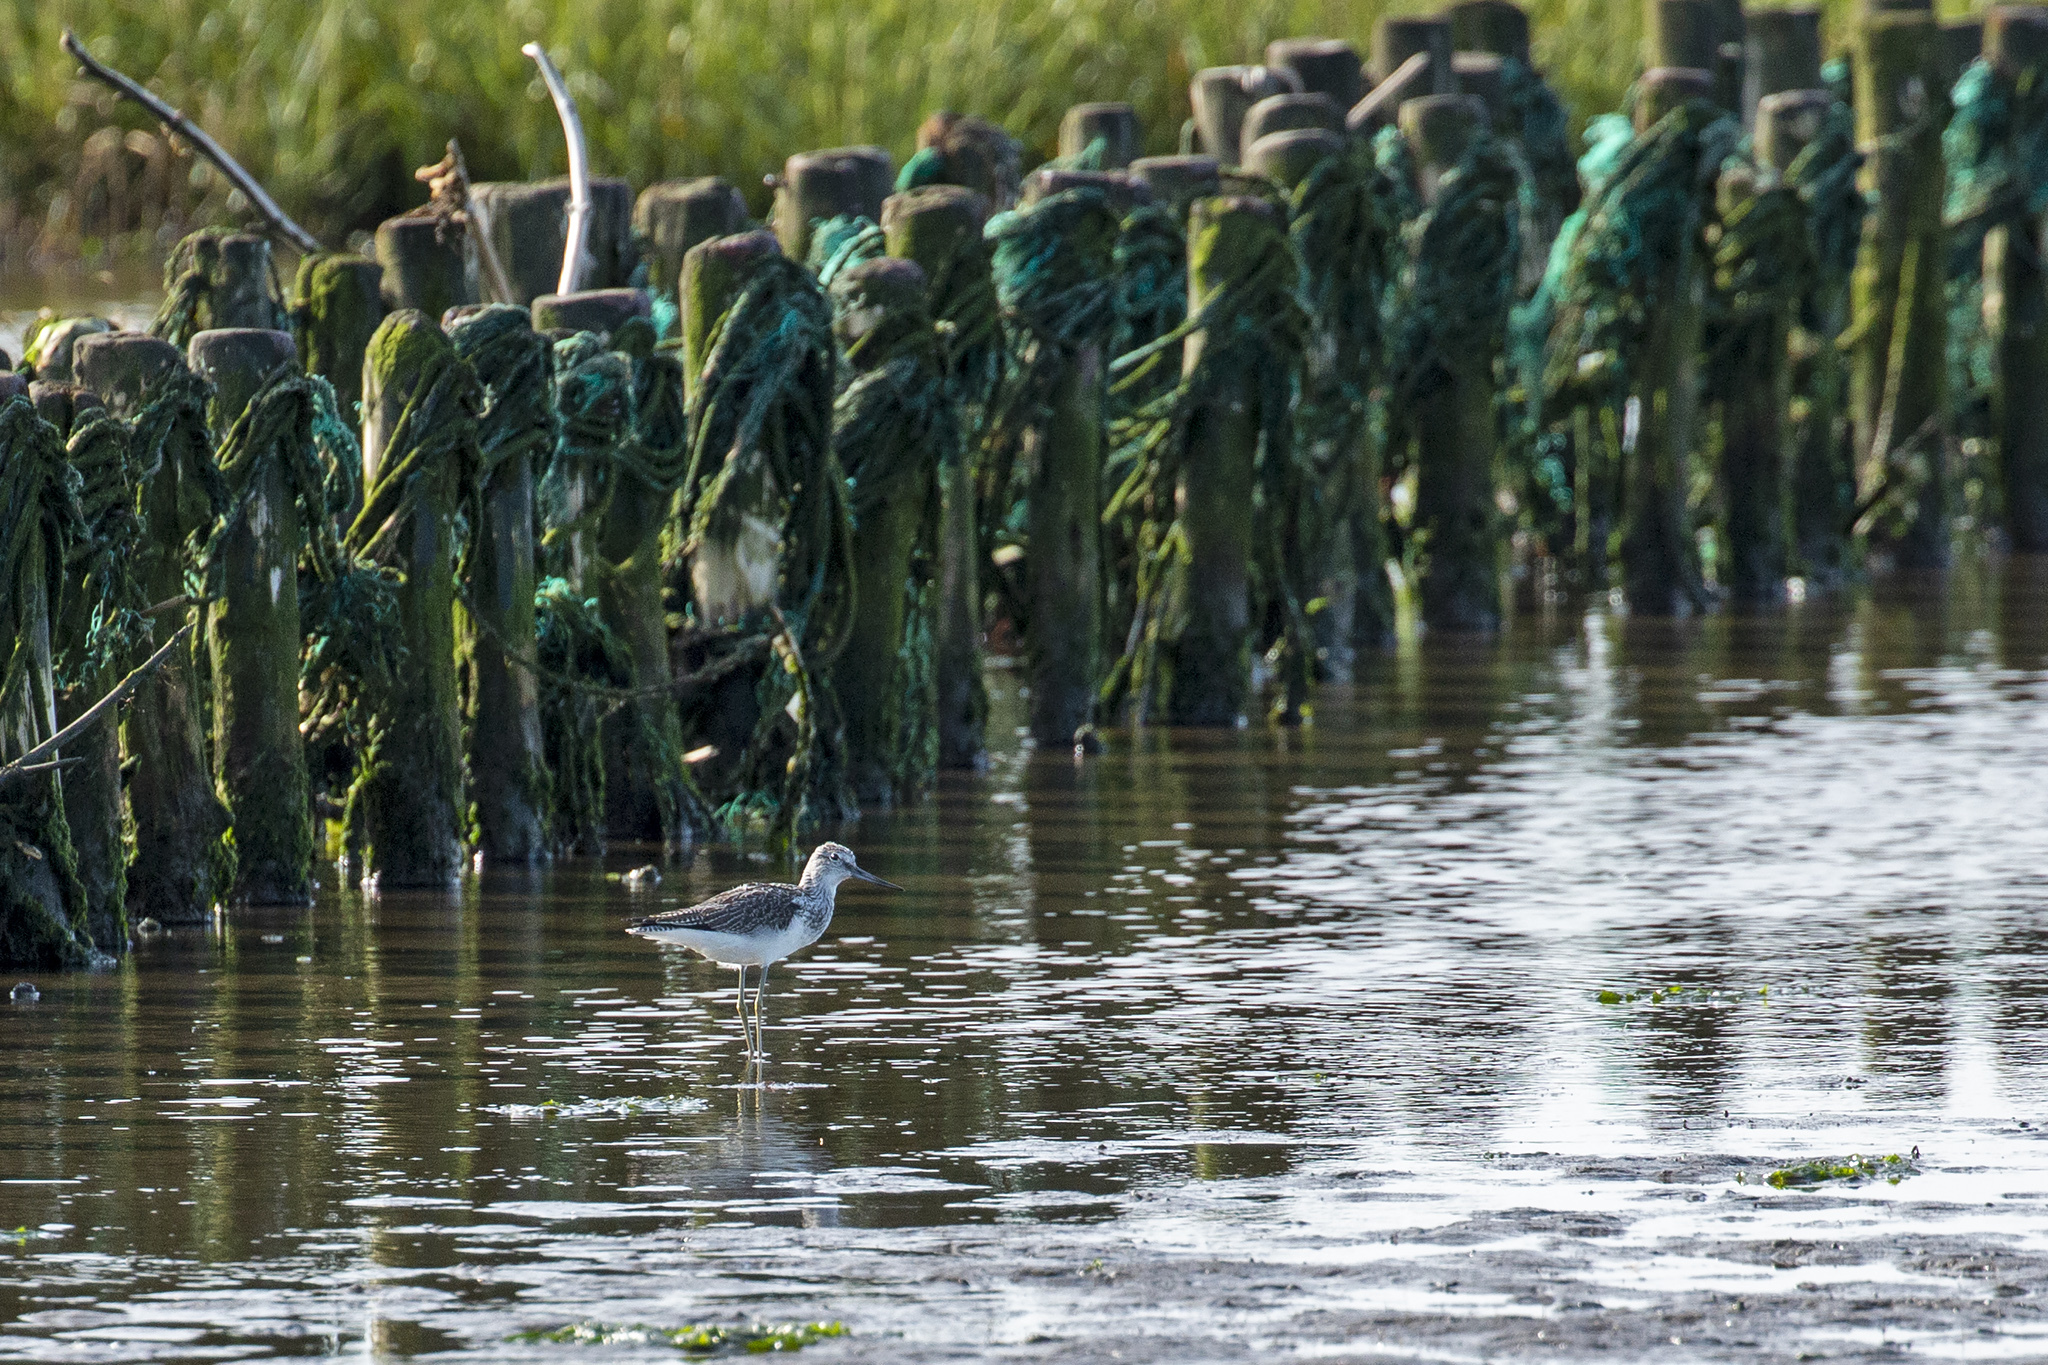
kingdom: Animalia
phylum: Chordata
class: Aves
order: Charadriiformes
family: Scolopacidae
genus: Tringa
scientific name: Tringa nebularia
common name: Common greenshank
